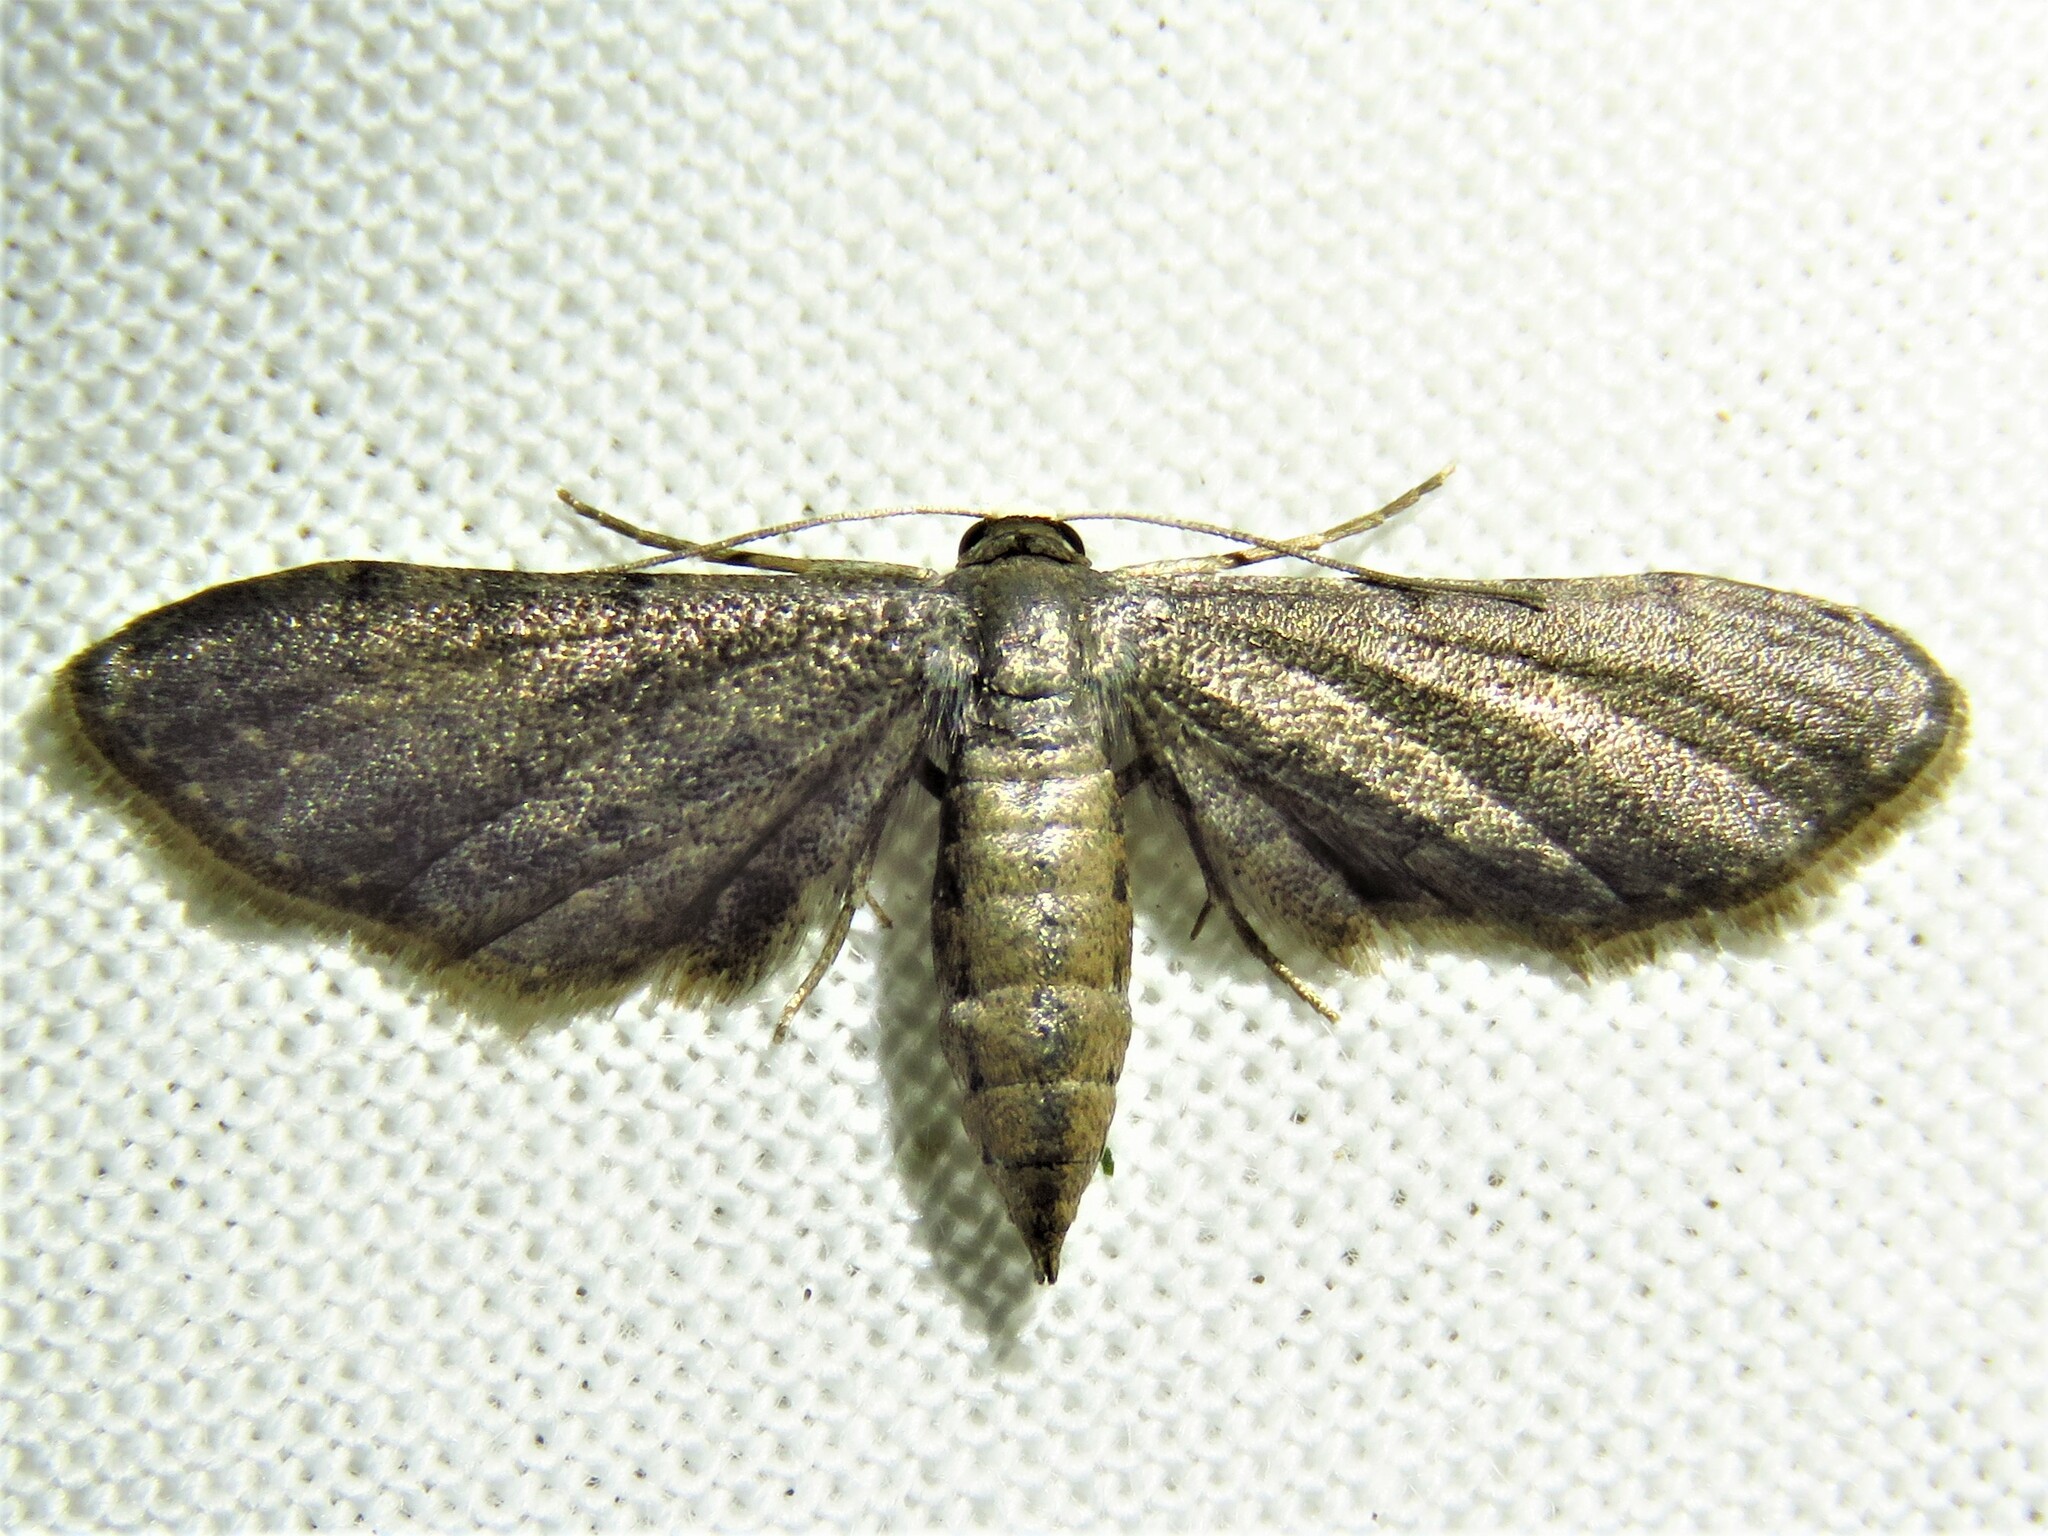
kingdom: Animalia
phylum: Arthropoda
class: Insecta
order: Lepidoptera
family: Geometridae
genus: Protoproutia
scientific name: Protoproutia laredoata
